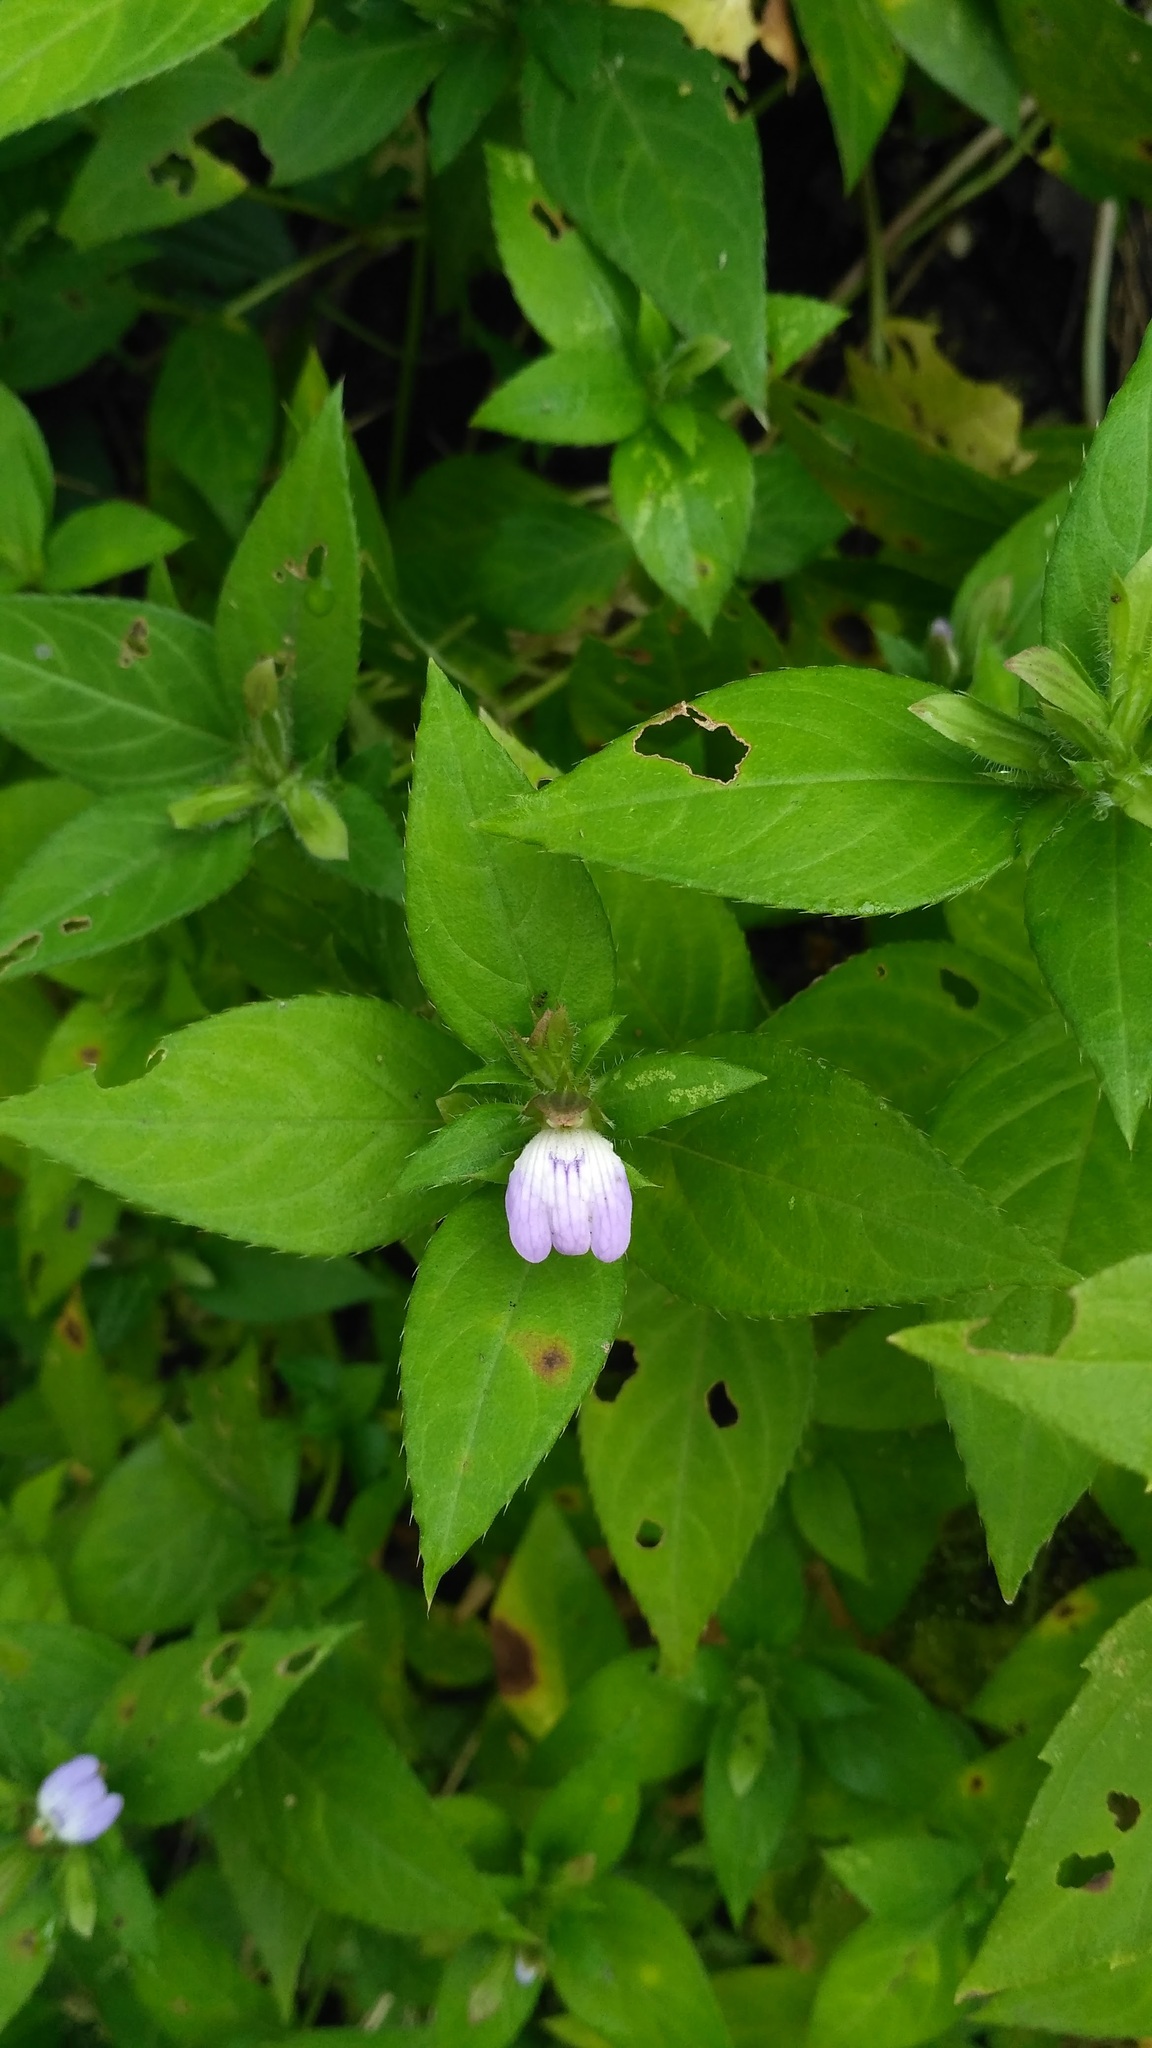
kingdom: Plantae
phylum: Tracheophyta
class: Magnoliopsida
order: Lamiales
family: Acanthaceae
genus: Cynarospermum
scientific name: Cynarospermum asperrimum
